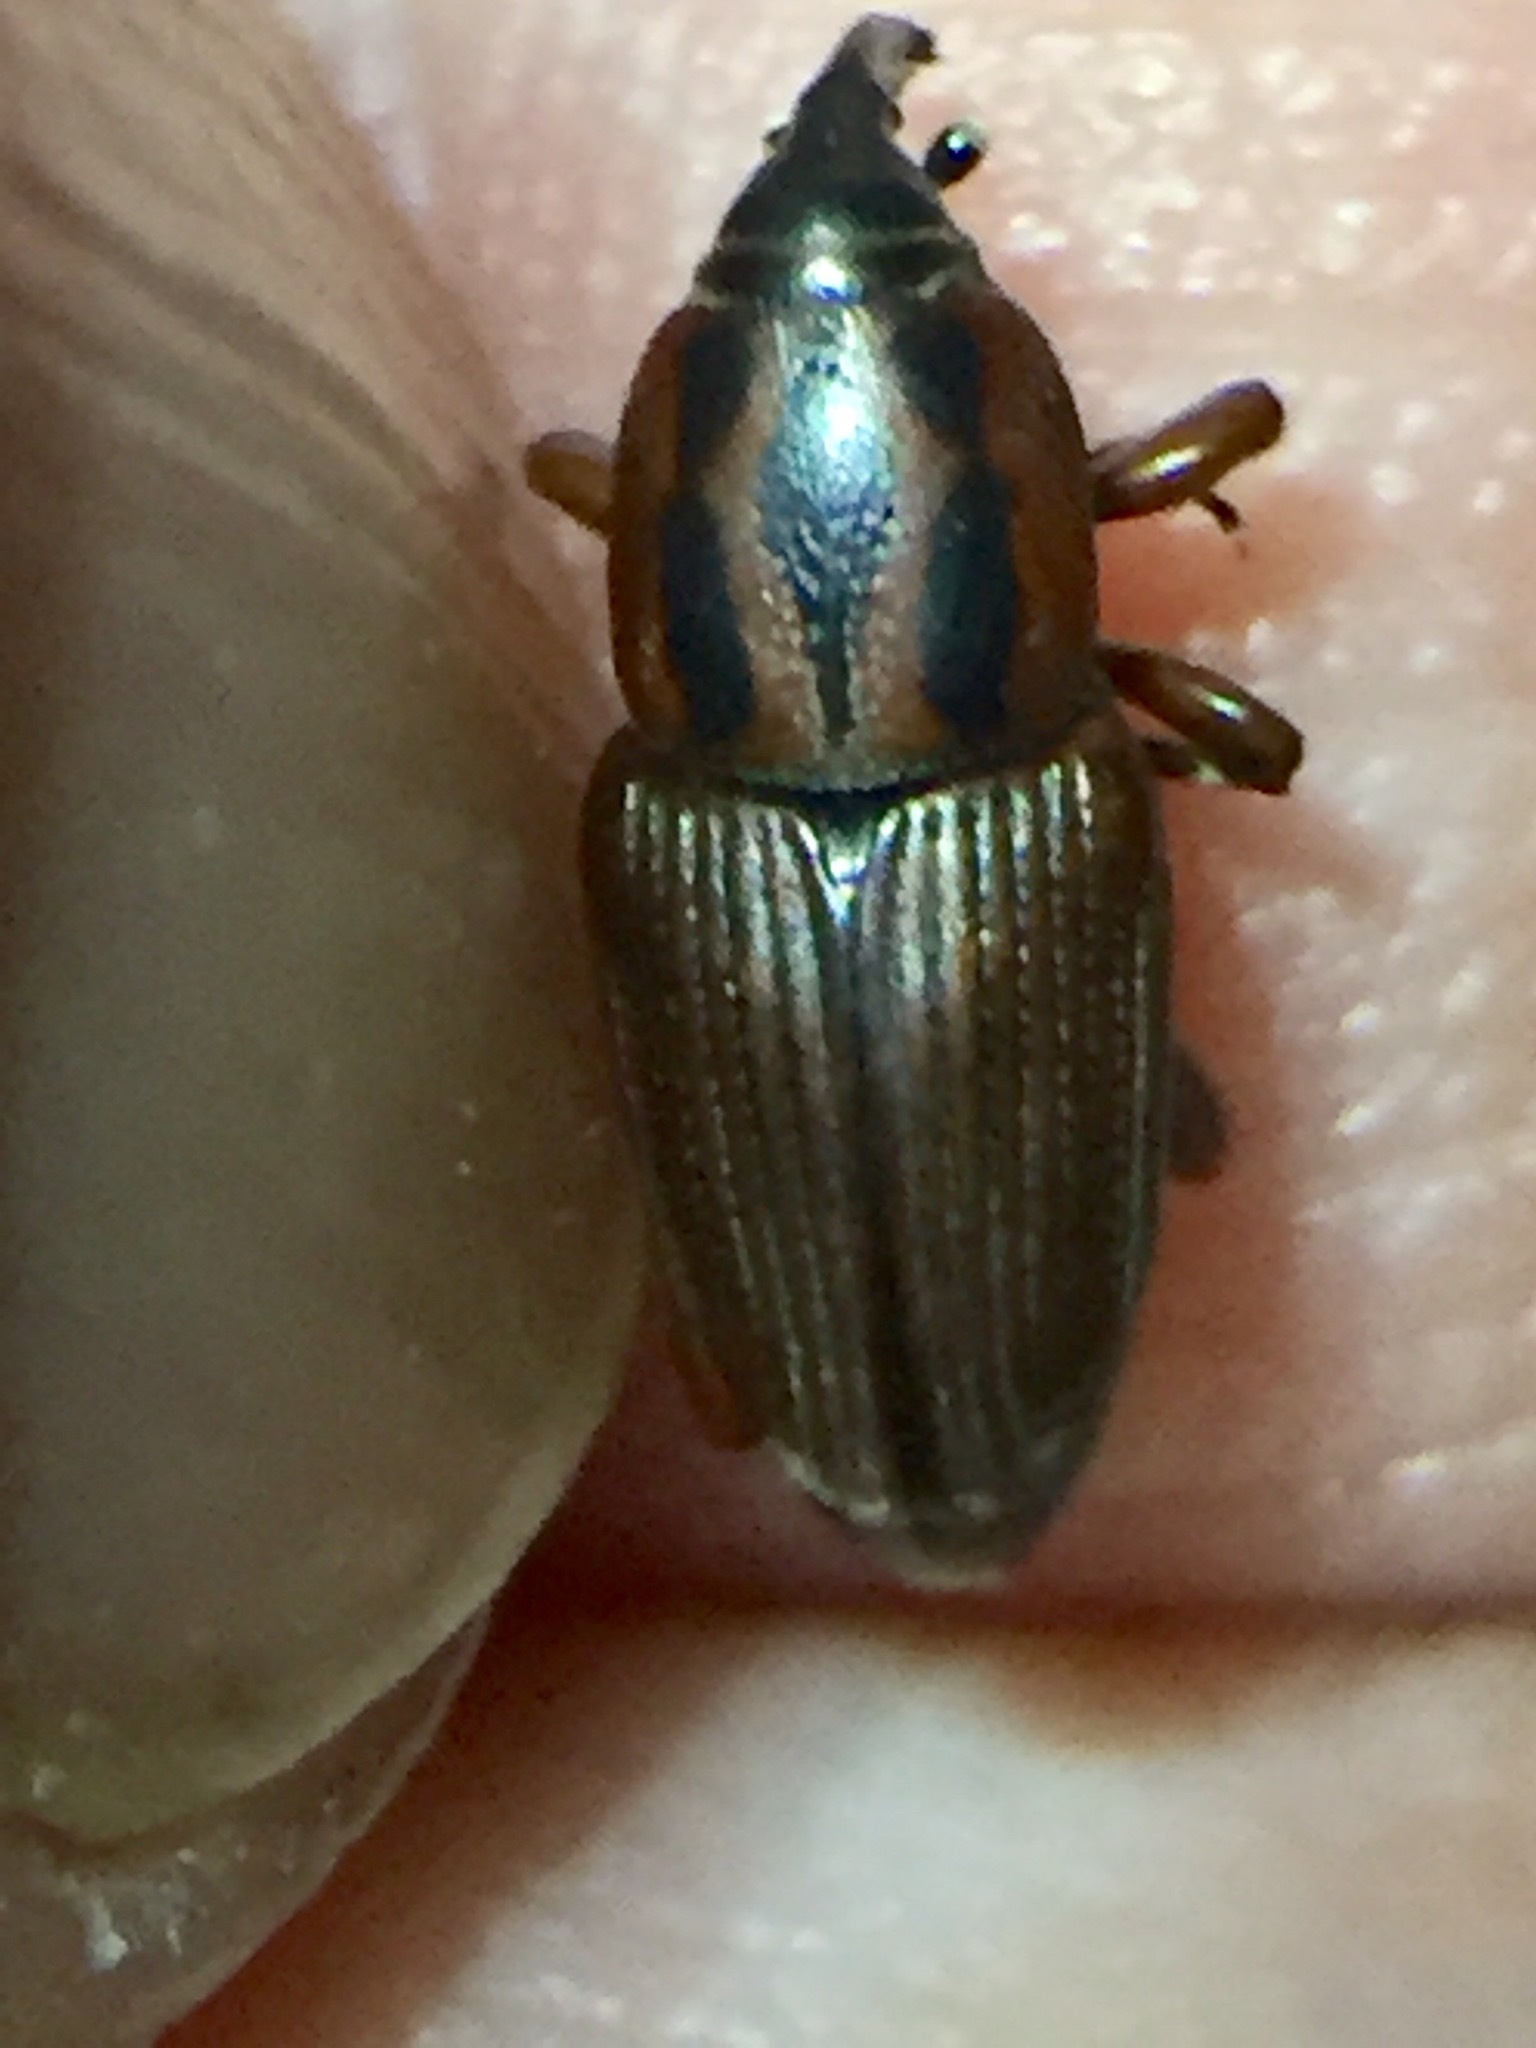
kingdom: Animalia
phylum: Arthropoda
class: Insecta
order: Coleoptera
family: Dryophthoridae
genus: Sphenophorus
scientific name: Sphenophorus brunnipennis
